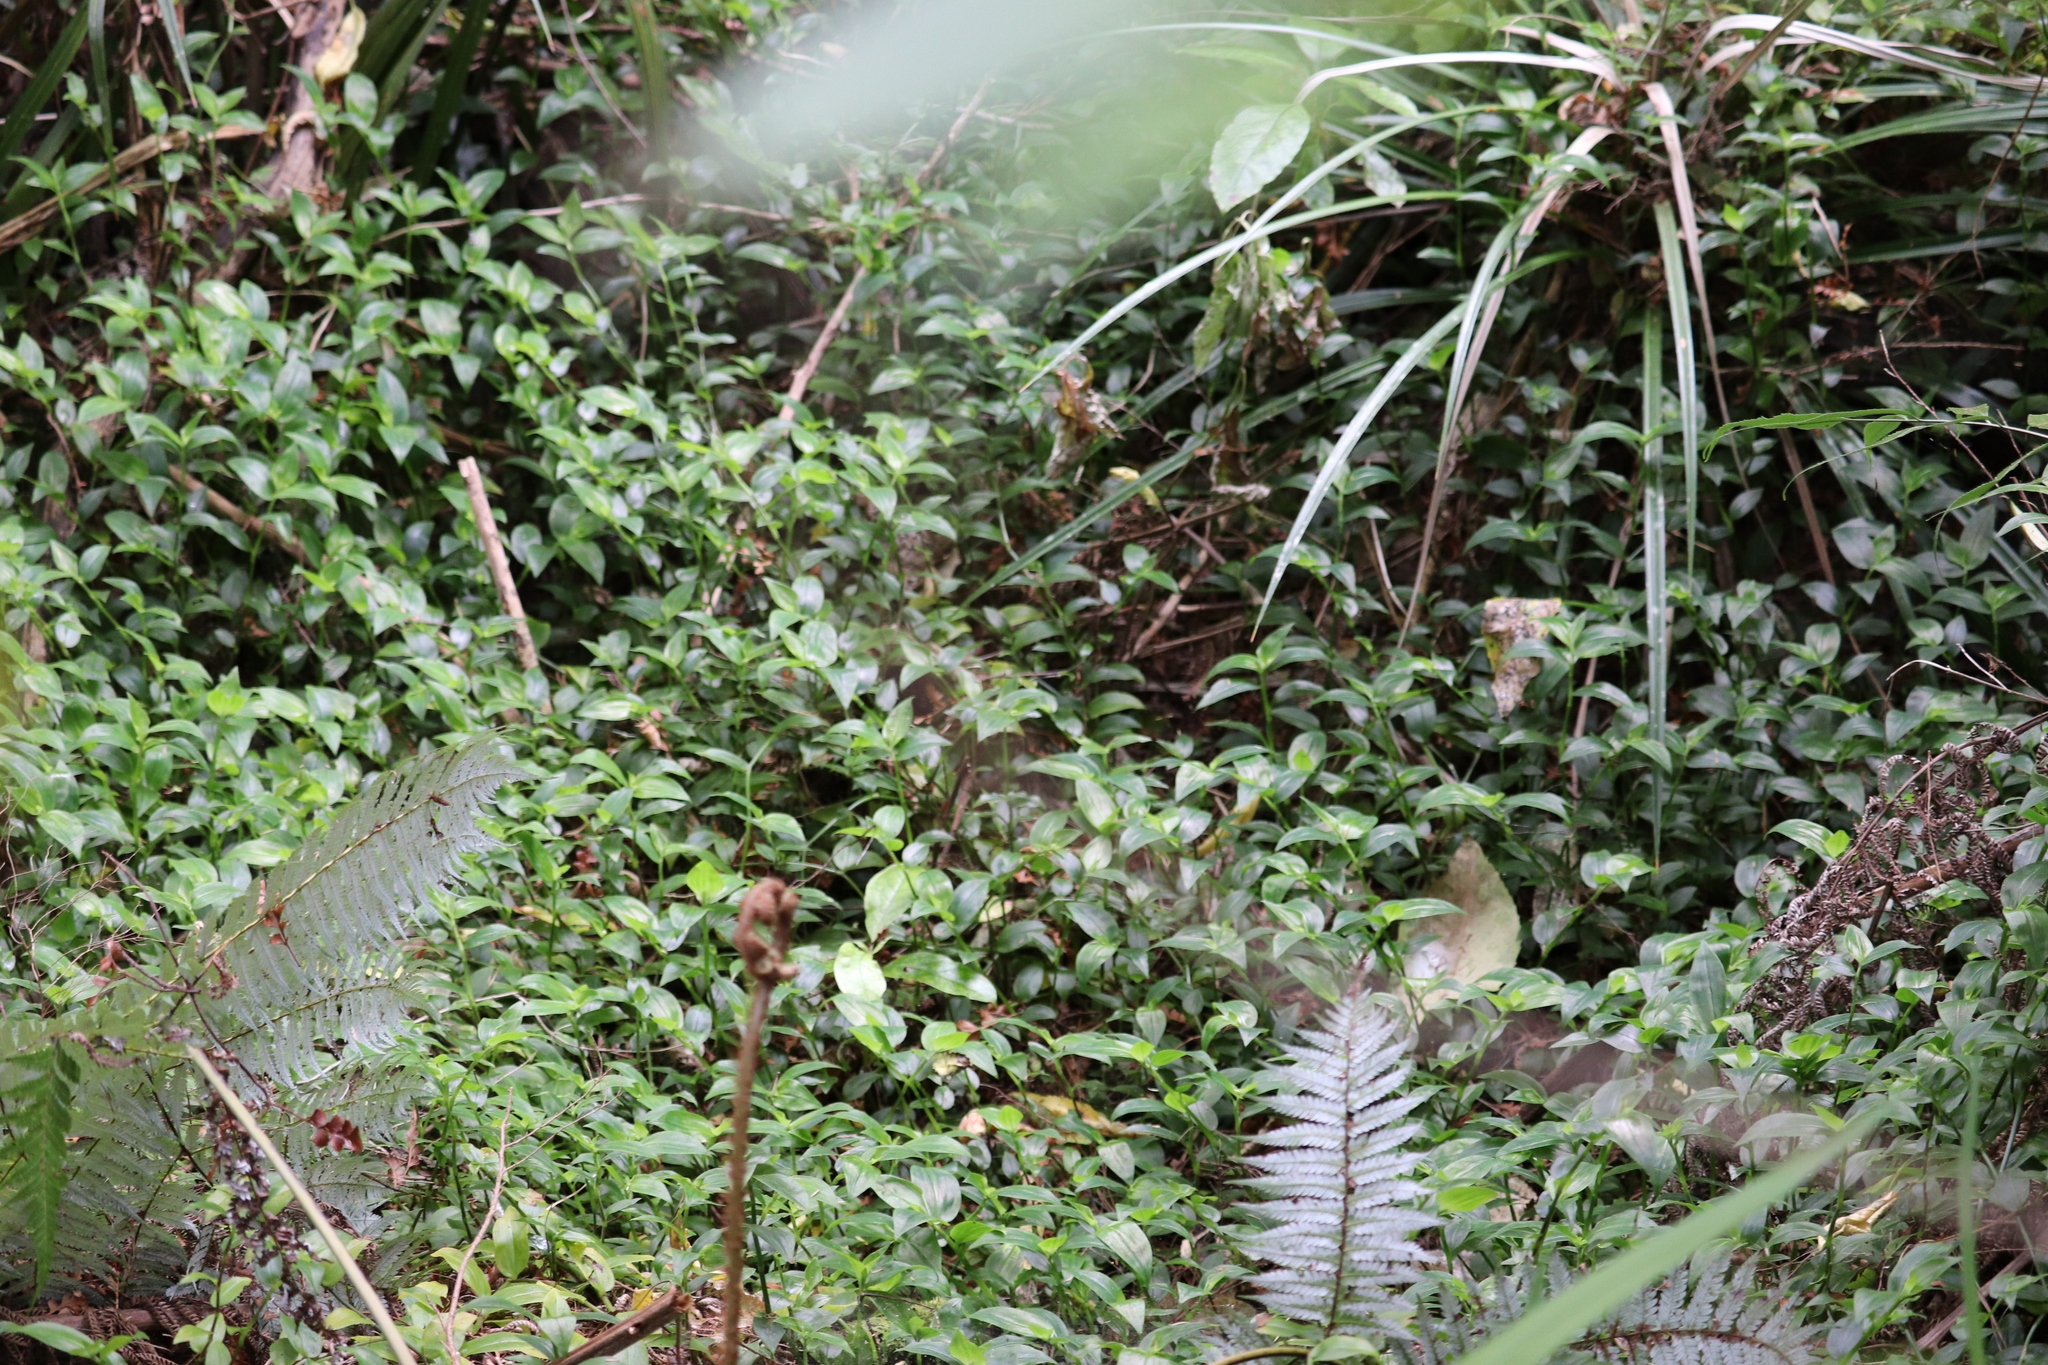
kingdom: Plantae
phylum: Tracheophyta
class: Liliopsida
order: Commelinales
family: Commelinaceae
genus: Tradescantia
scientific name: Tradescantia fluminensis
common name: Wandering-jew
